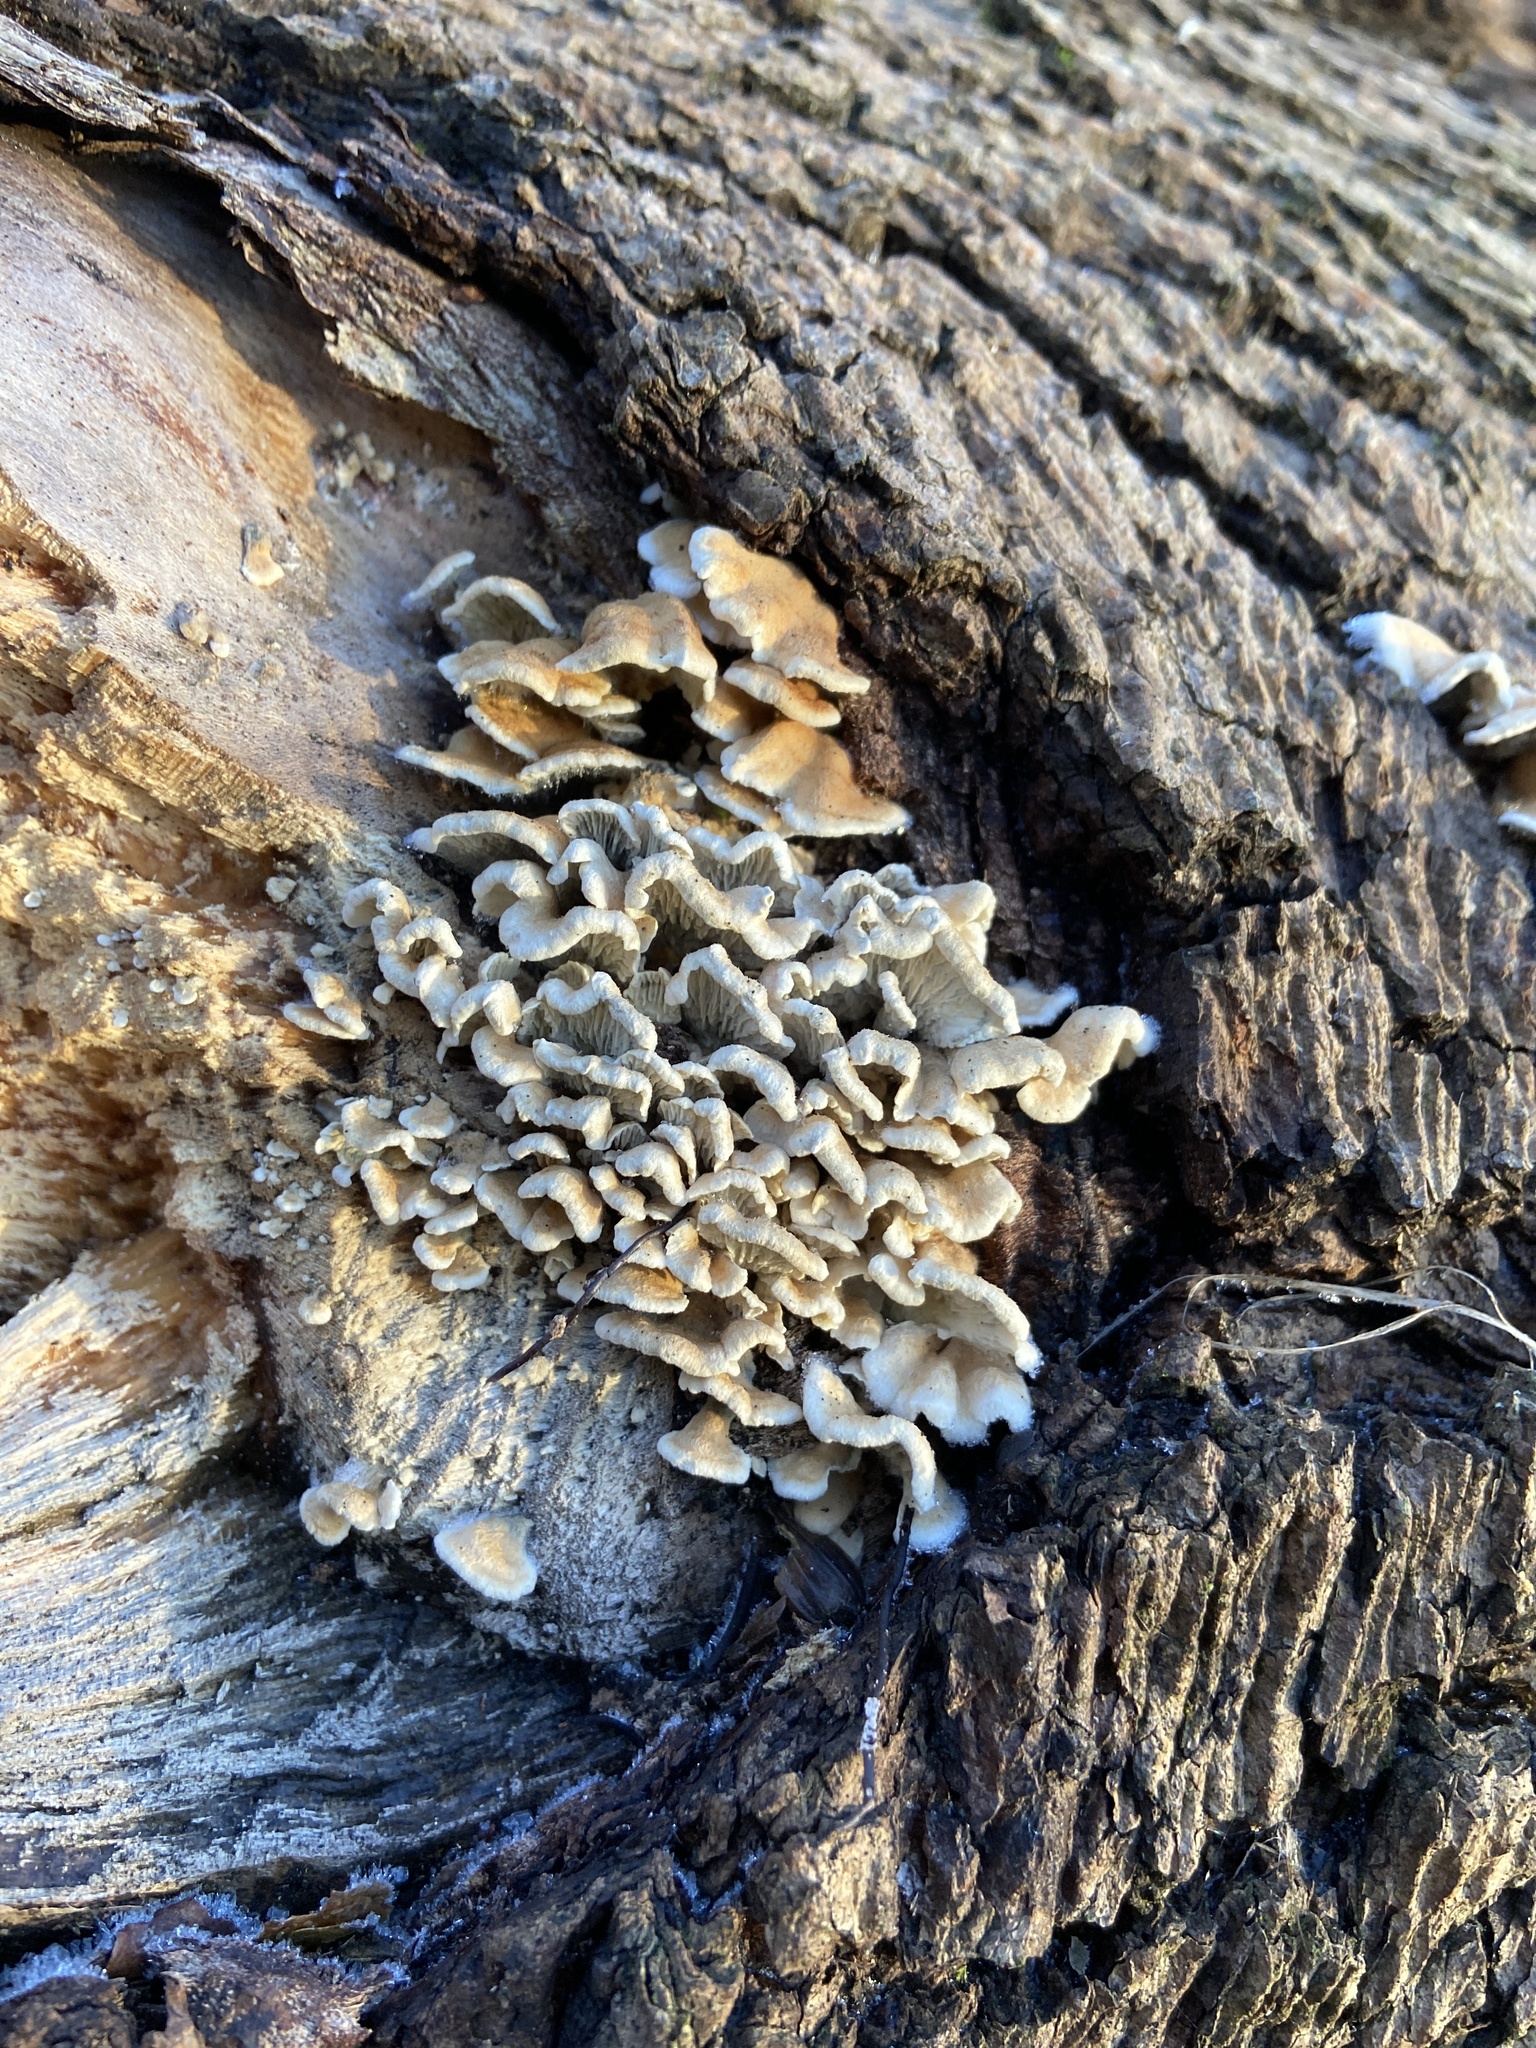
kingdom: Fungi
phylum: Basidiomycota
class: Agaricomycetes
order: Amylocorticiales
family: Amylocorticiaceae
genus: Plicaturopsis
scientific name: Plicaturopsis crispa
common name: Crimped gill
